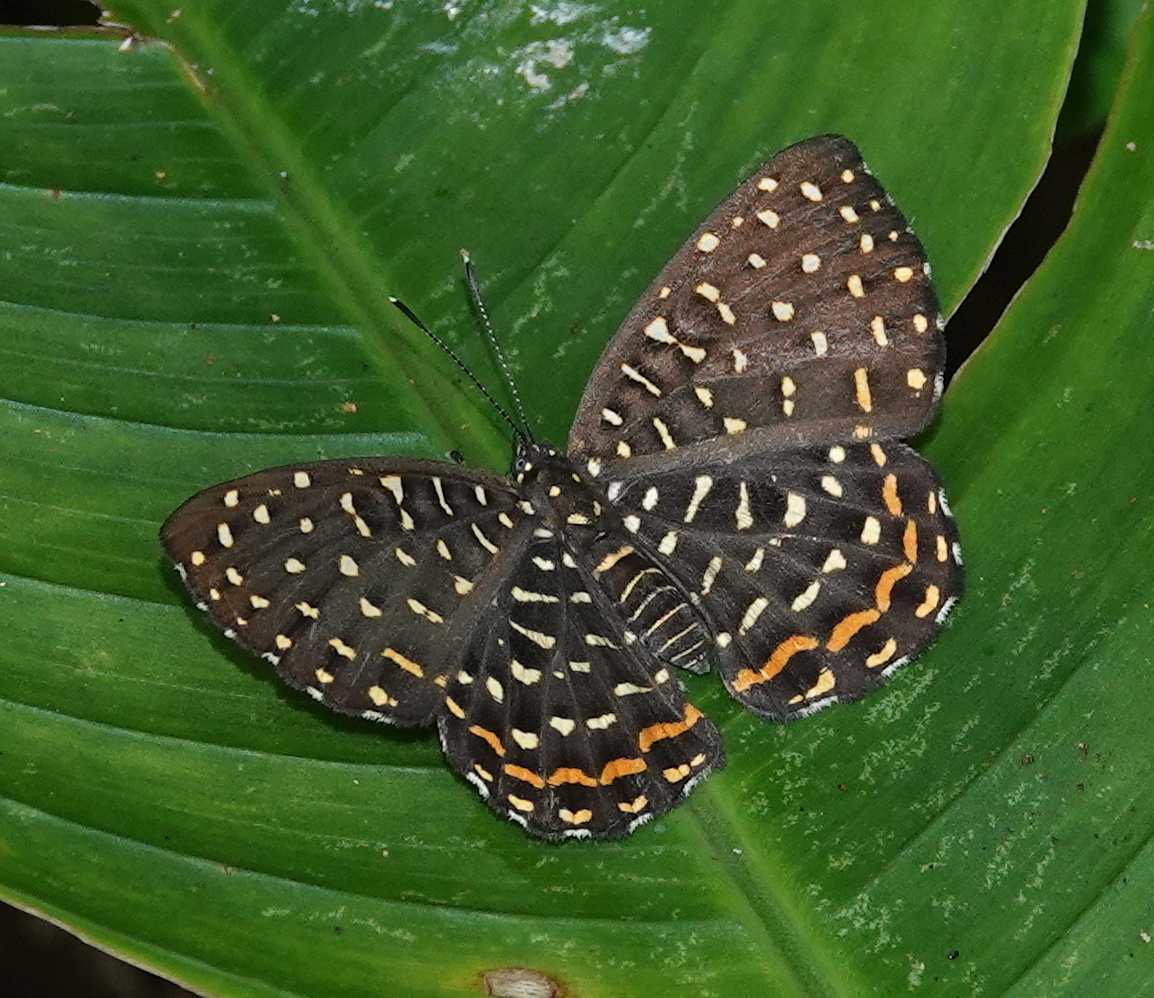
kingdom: Animalia
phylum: Arthropoda
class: Insecta
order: Diptera
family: Ephydridae
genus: Napaea
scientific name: Napaea eucharila
